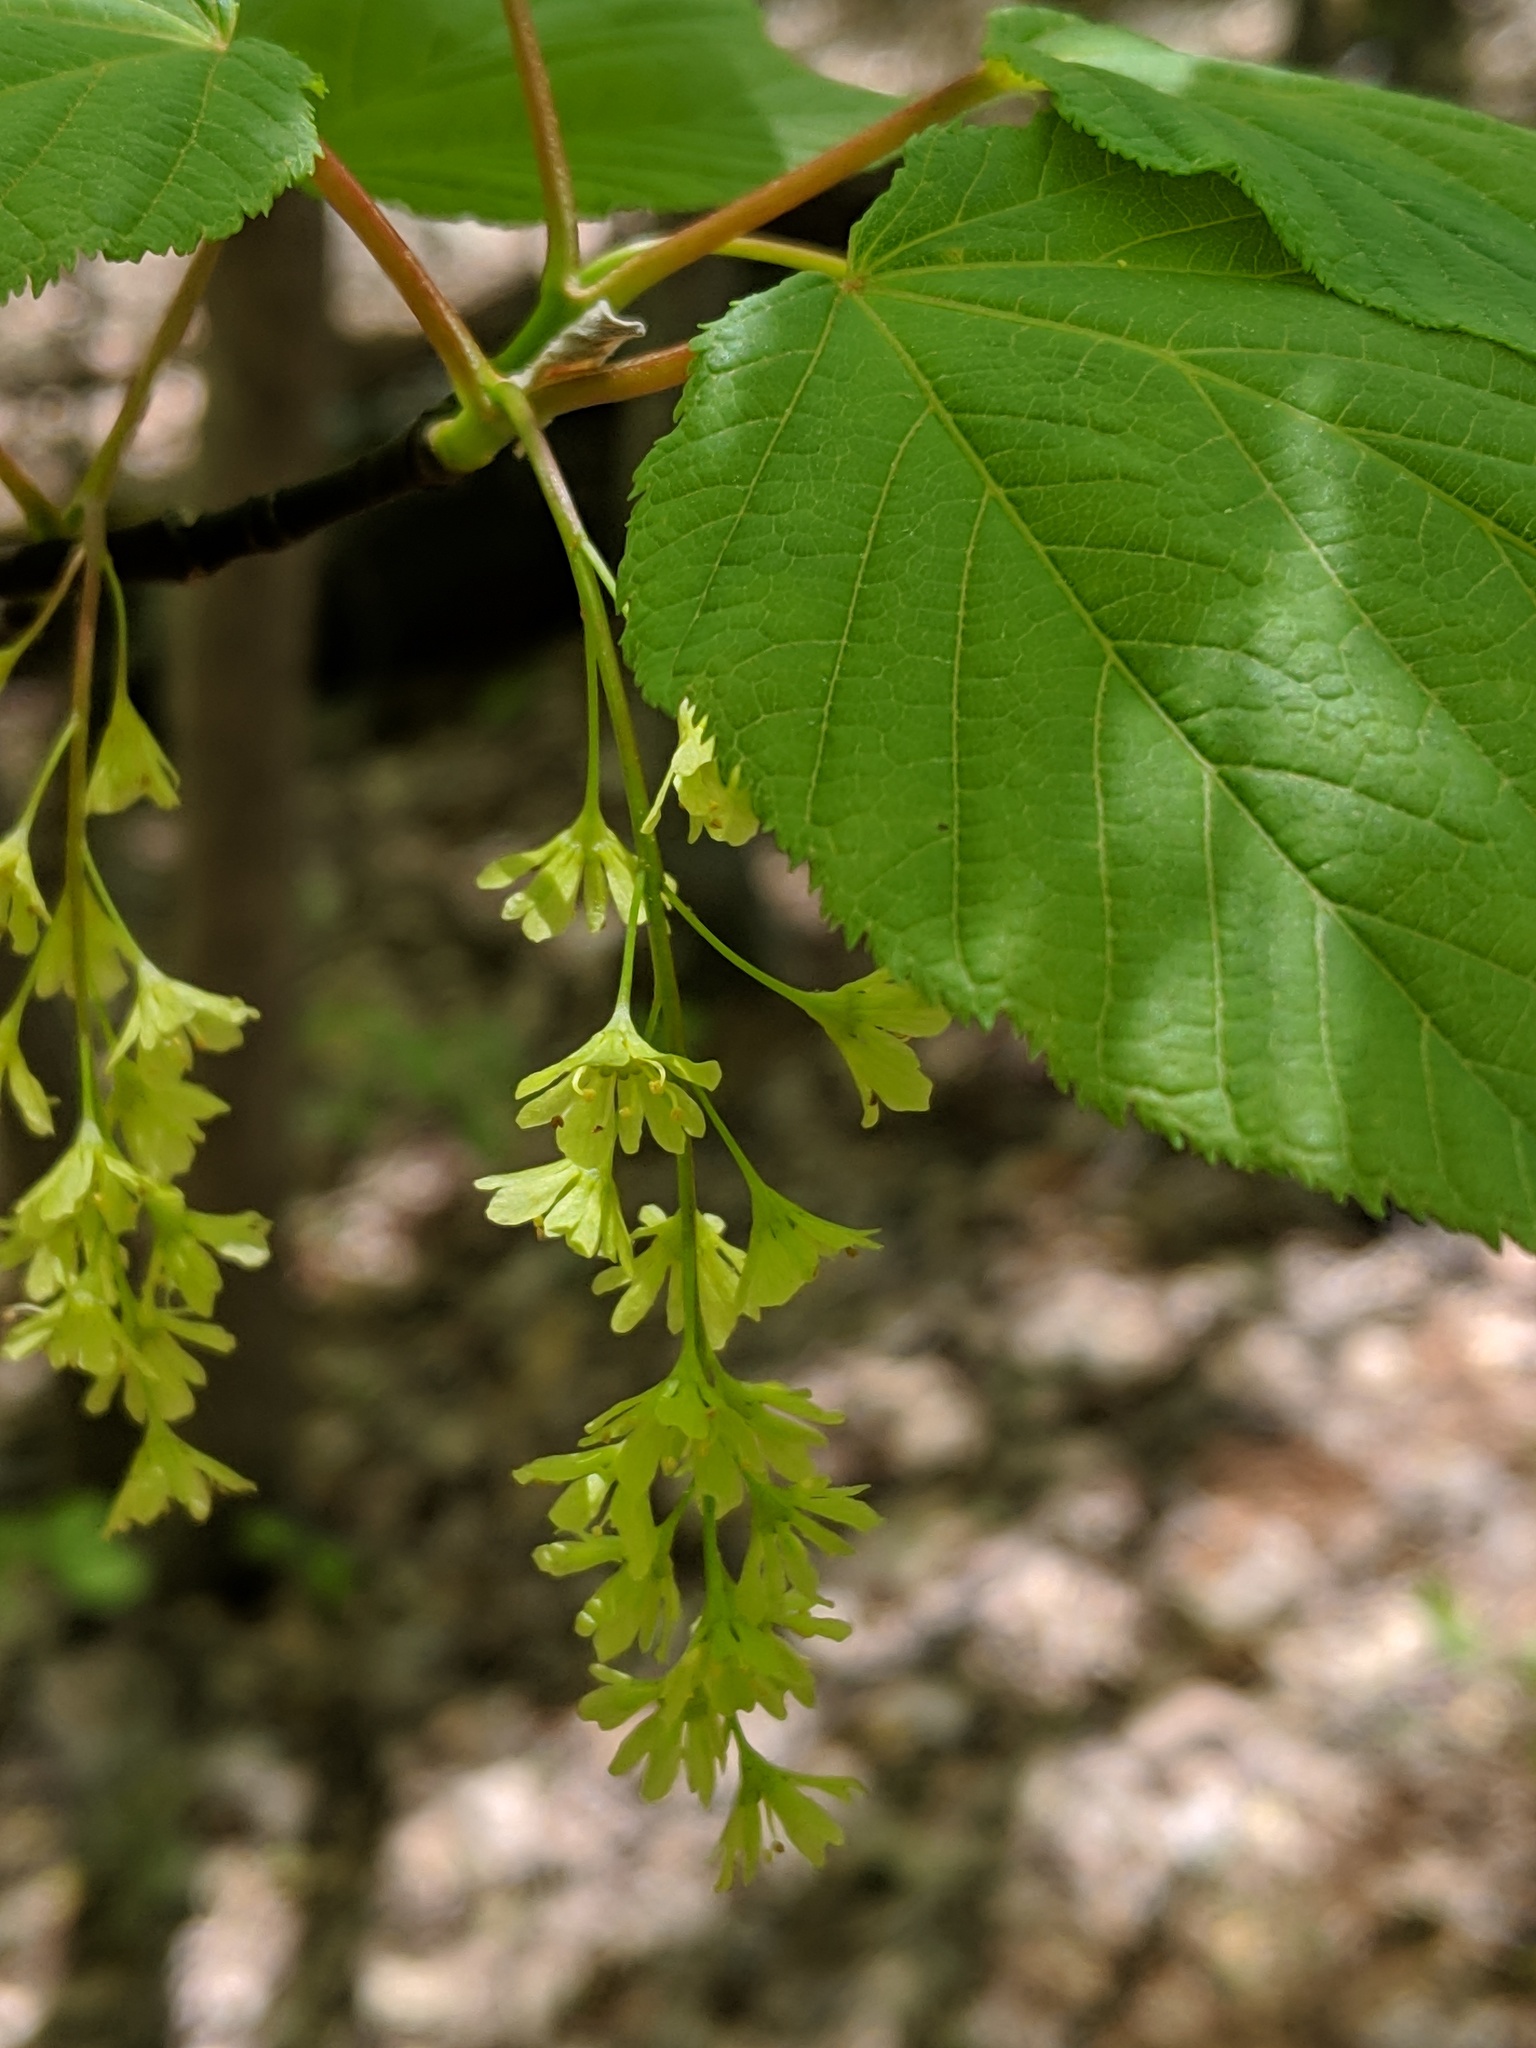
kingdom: Plantae
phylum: Tracheophyta
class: Magnoliopsida
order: Sapindales
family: Sapindaceae
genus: Acer
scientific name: Acer pensylvanicum
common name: Moosewood
